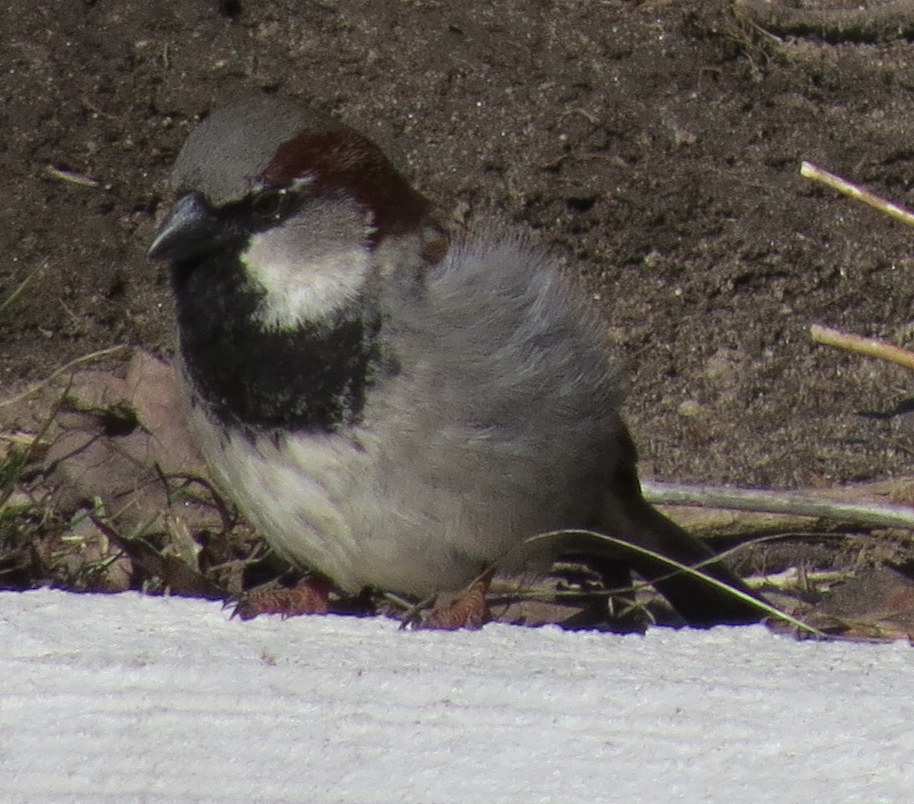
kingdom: Animalia
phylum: Chordata
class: Aves
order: Passeriformes
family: Passeridae
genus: Passer
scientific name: Passer domesticus
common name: House sparrow
